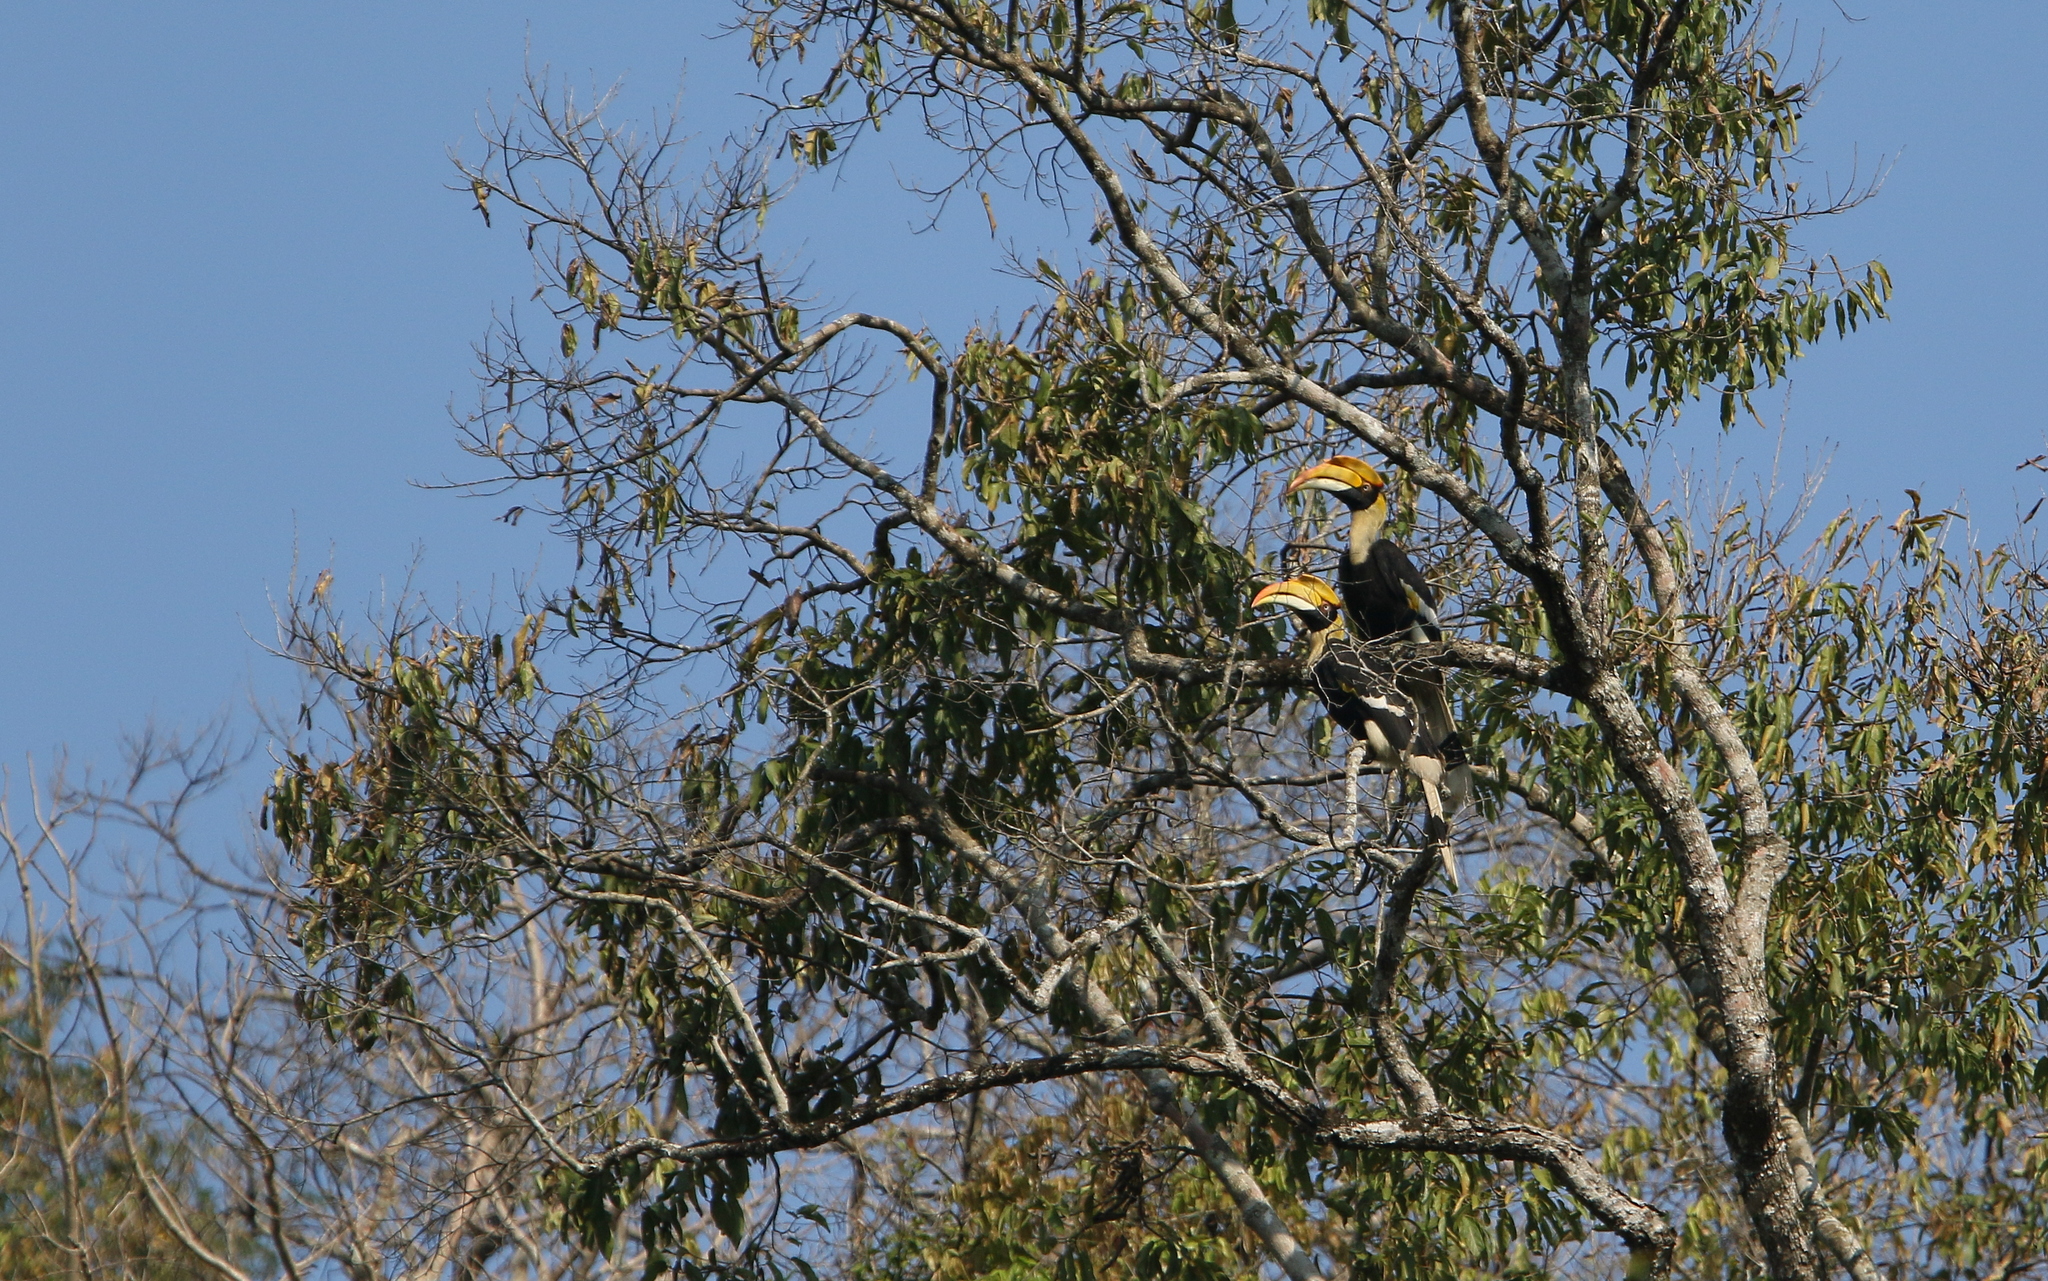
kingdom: Animalia
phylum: Chordata
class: Aves
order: Bucerotiformes
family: Bucerotidae
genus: Buceros
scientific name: Buceros bicornis
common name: Great hornbill
